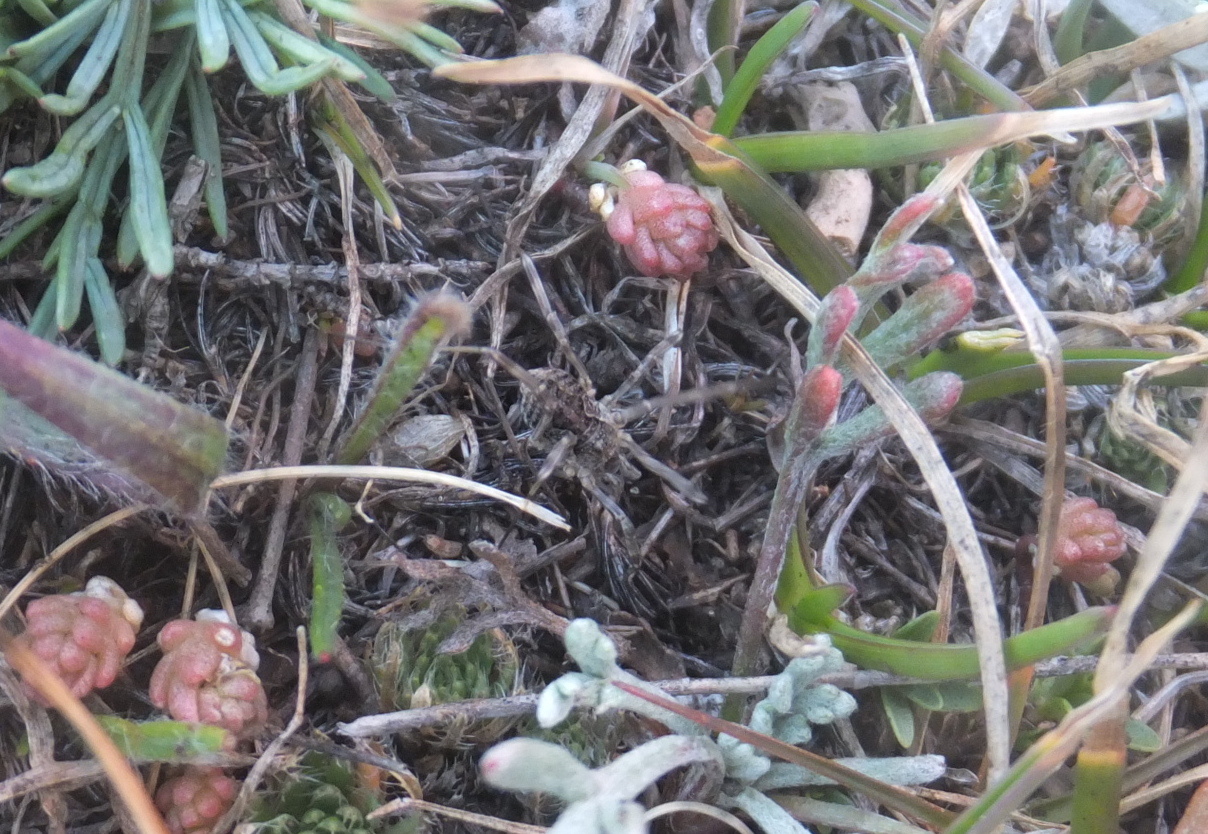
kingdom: Animalia
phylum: Arthropoda
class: Arachnida
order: Opiliones
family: Phalangiidae
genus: Phalangium
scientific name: Phalangium opilio
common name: Daddy longleg
